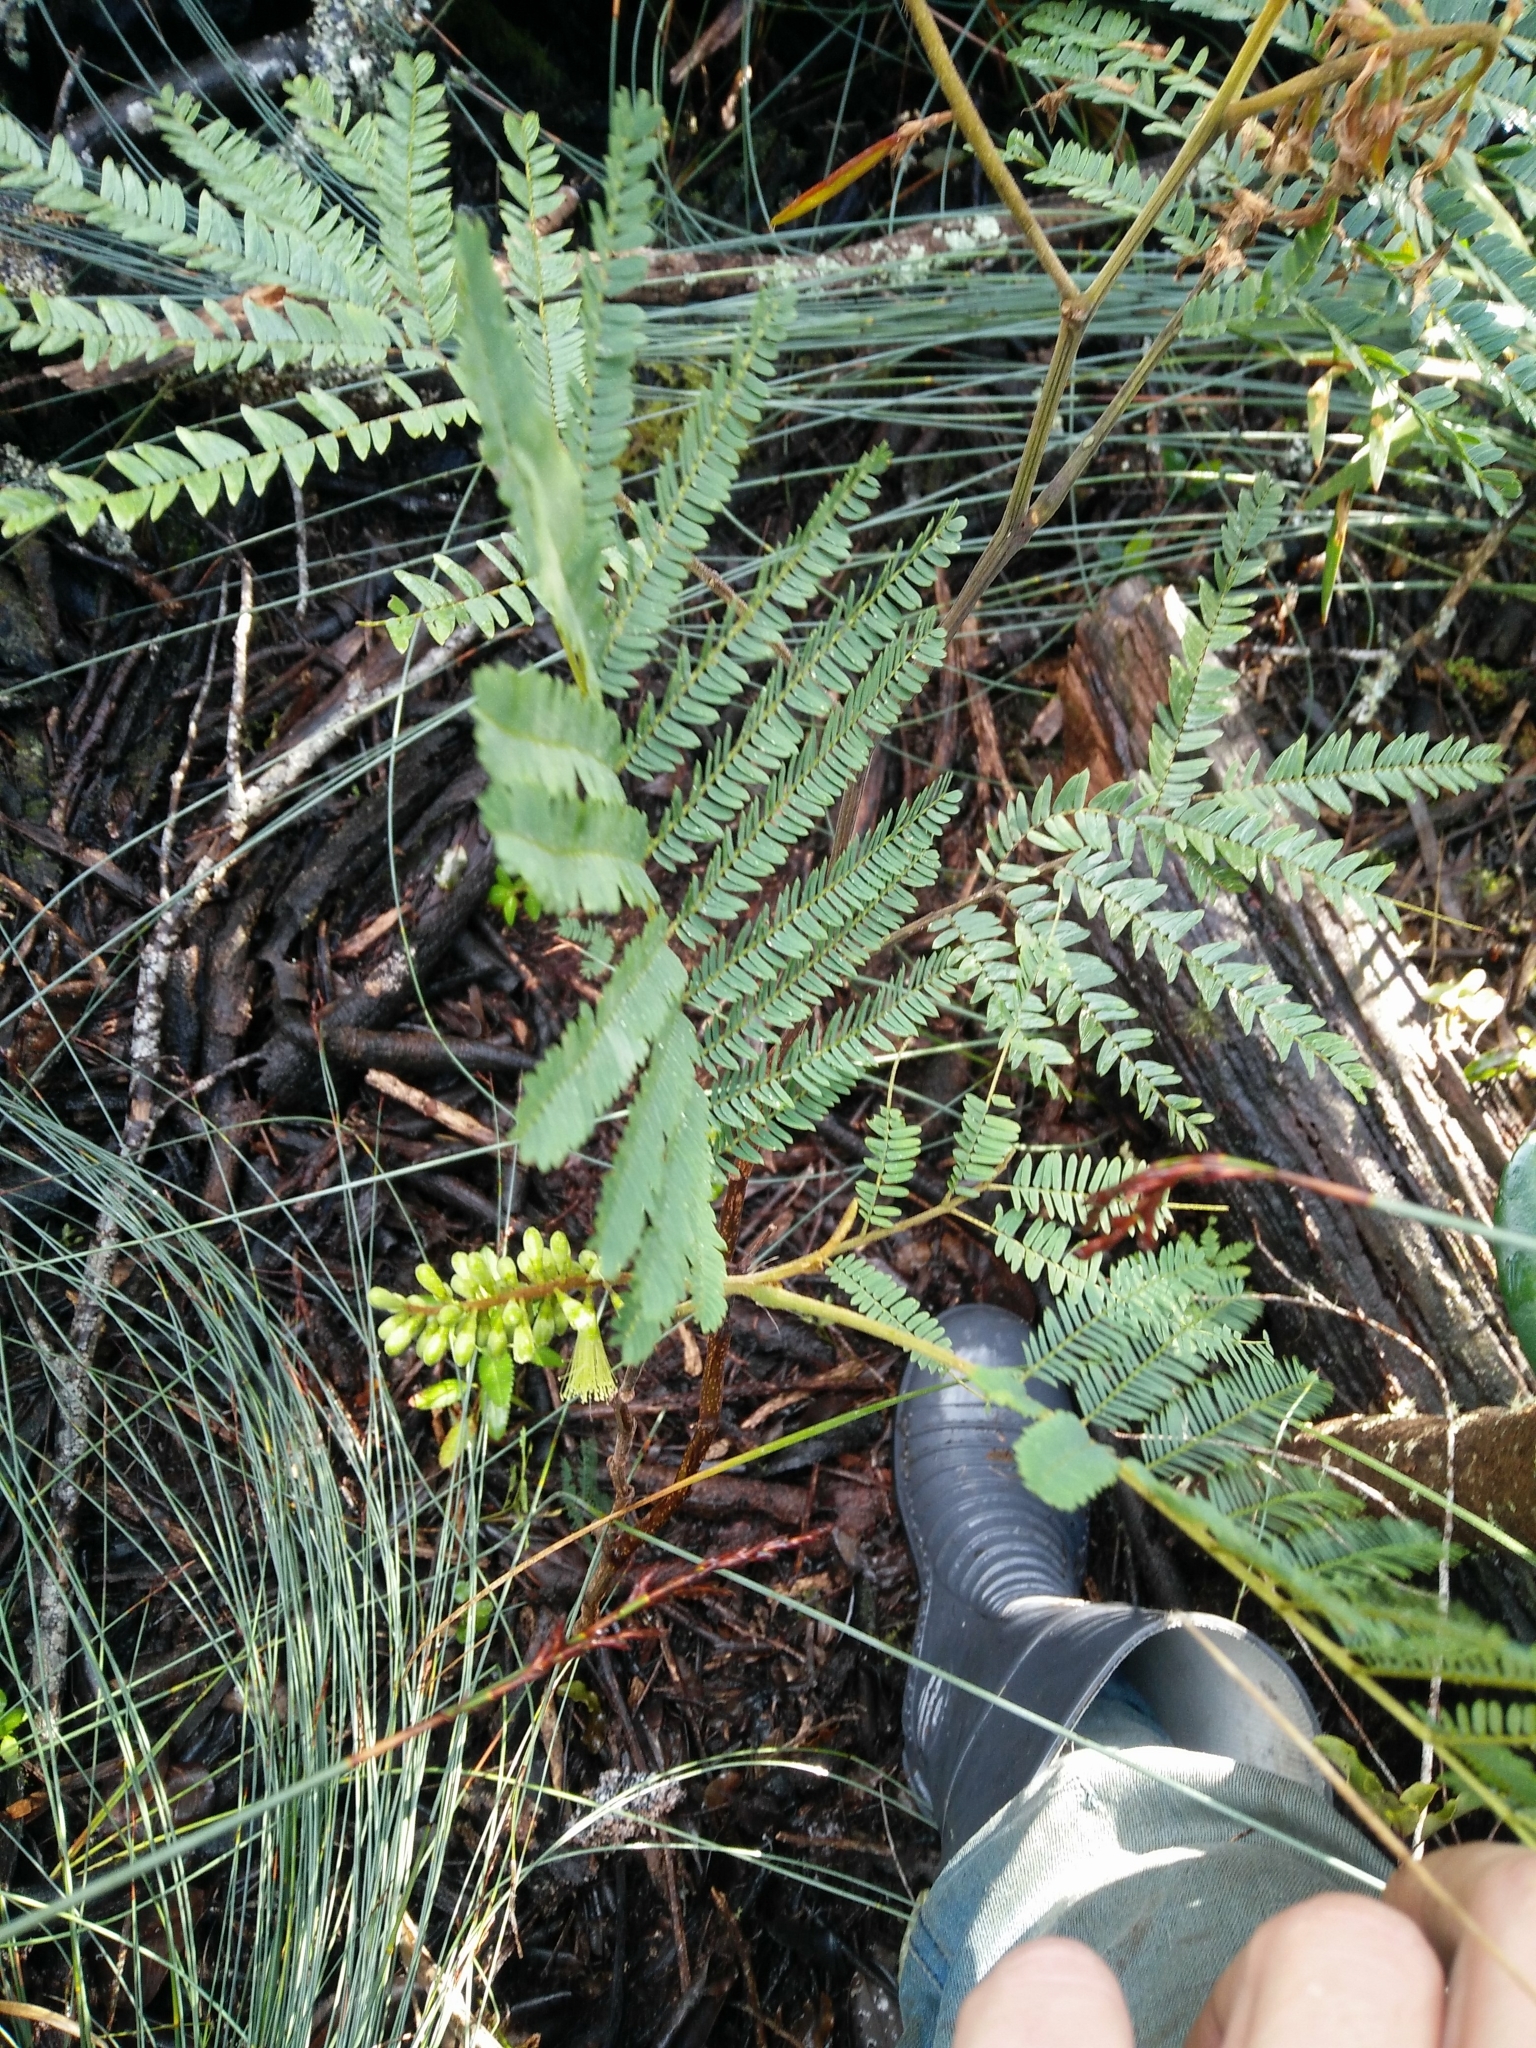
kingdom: Plantae
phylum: Tracheophyta
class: Magnoliopsida
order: Fabales
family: Fabaceae
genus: Paraserianthes
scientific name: Paraserianthes lophantha
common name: Plume albizia
